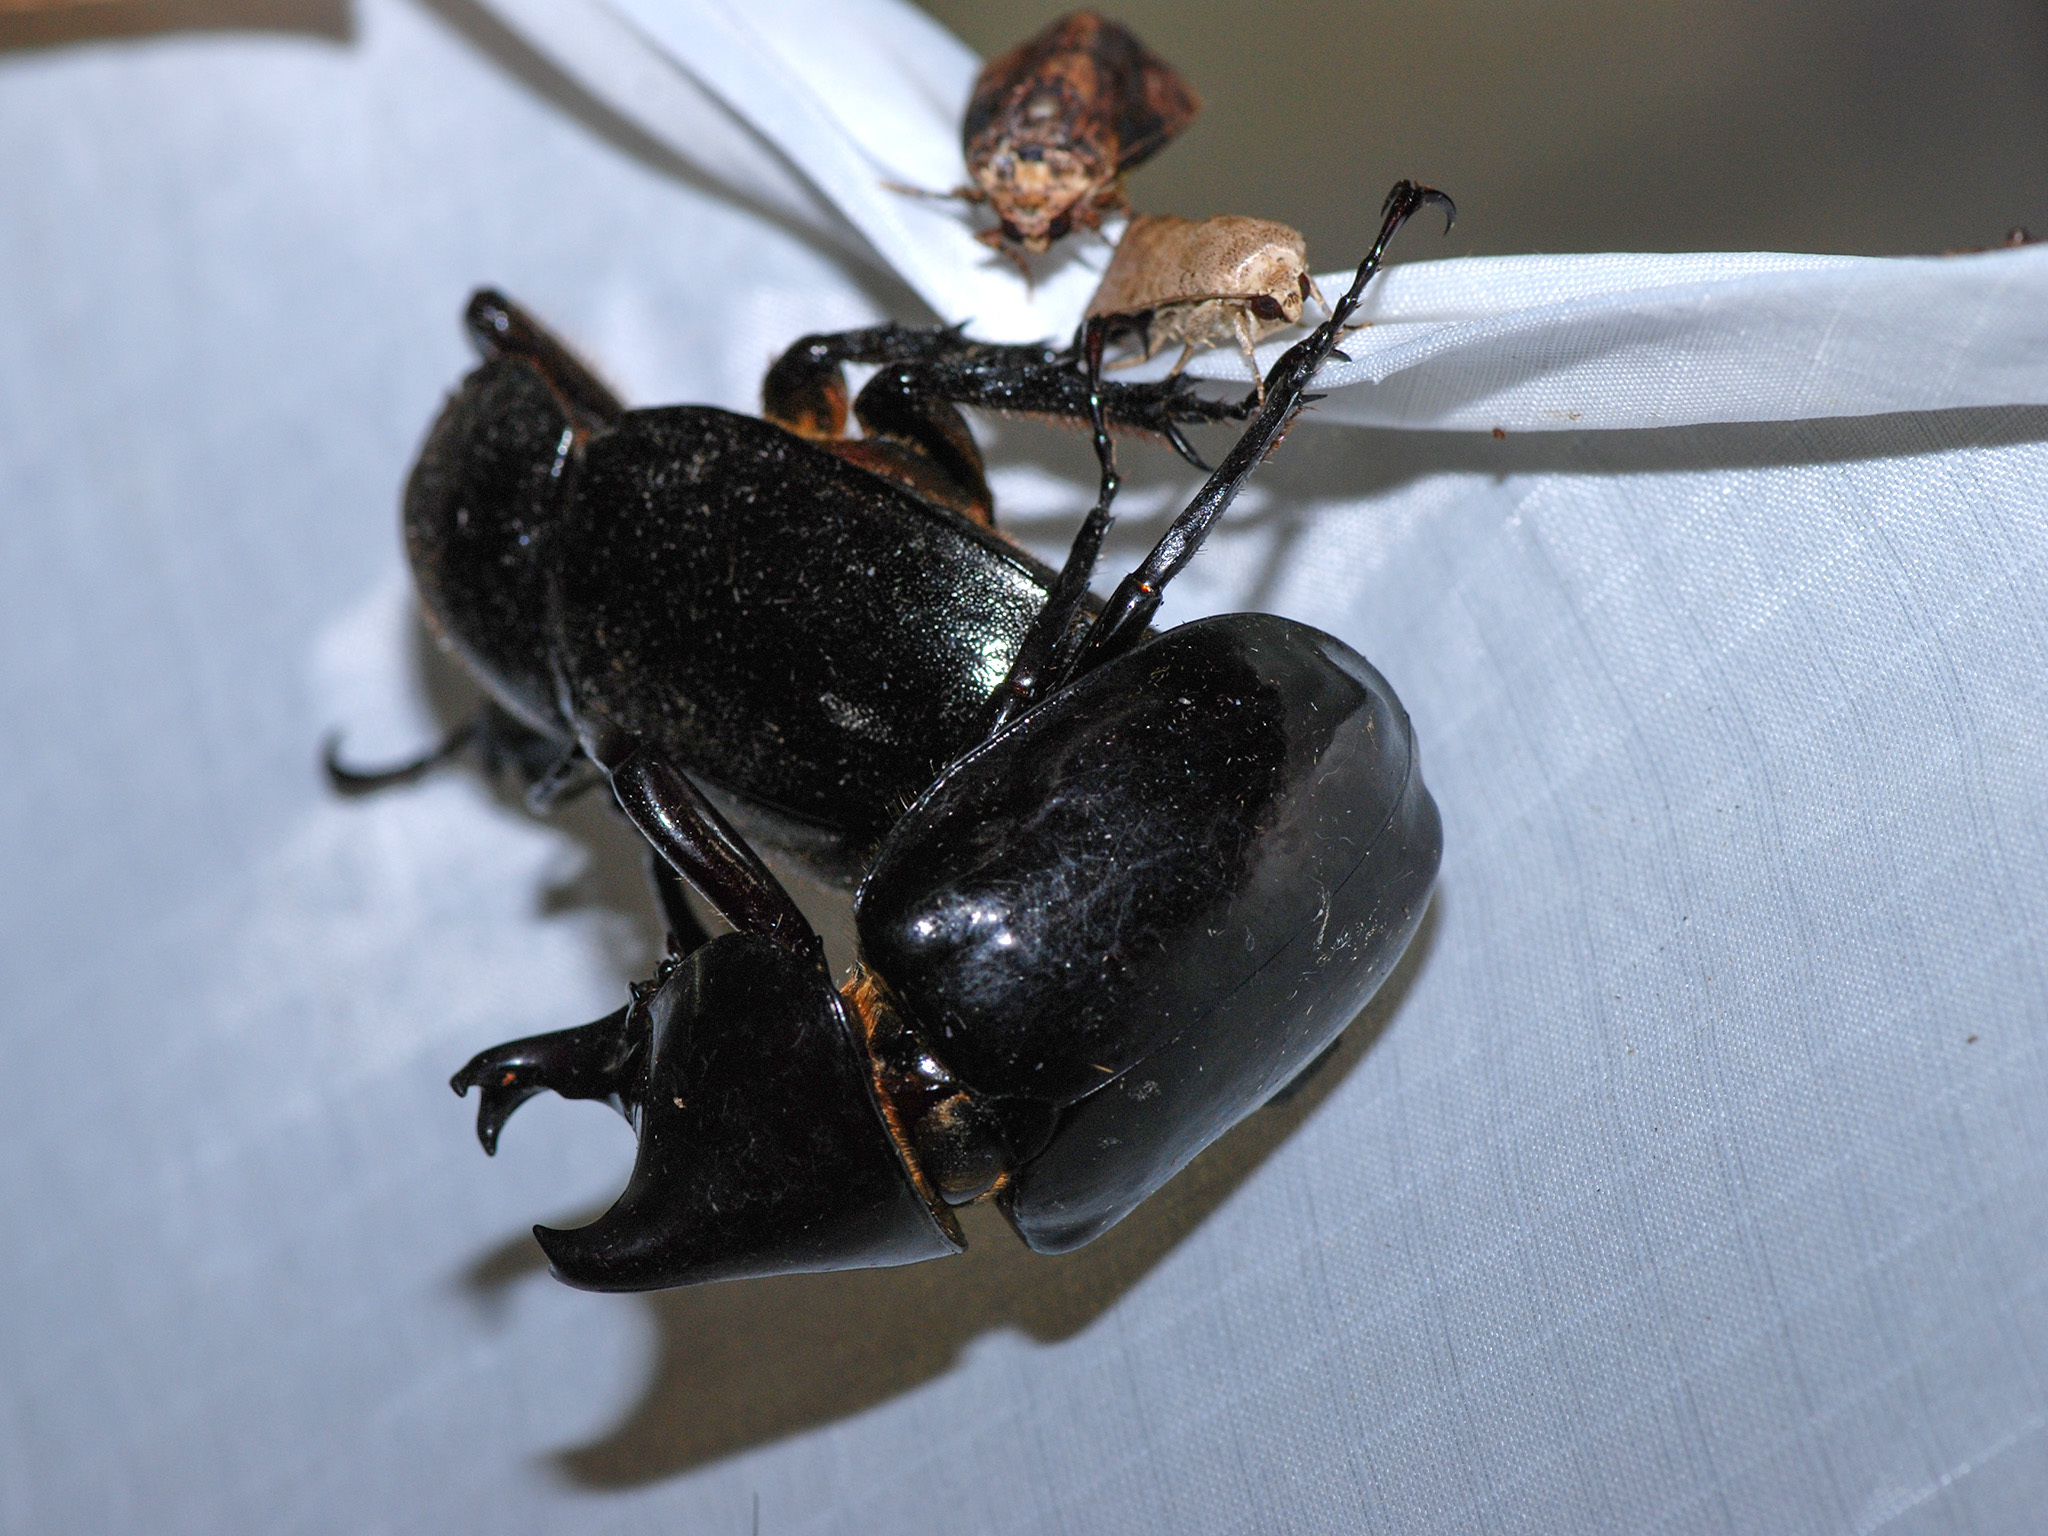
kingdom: Animalia
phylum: Arthropoda
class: Insecta
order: Coleoptera
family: Scarabaeidae
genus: Xylotrupes
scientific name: Xylotrupes sumatrensis
